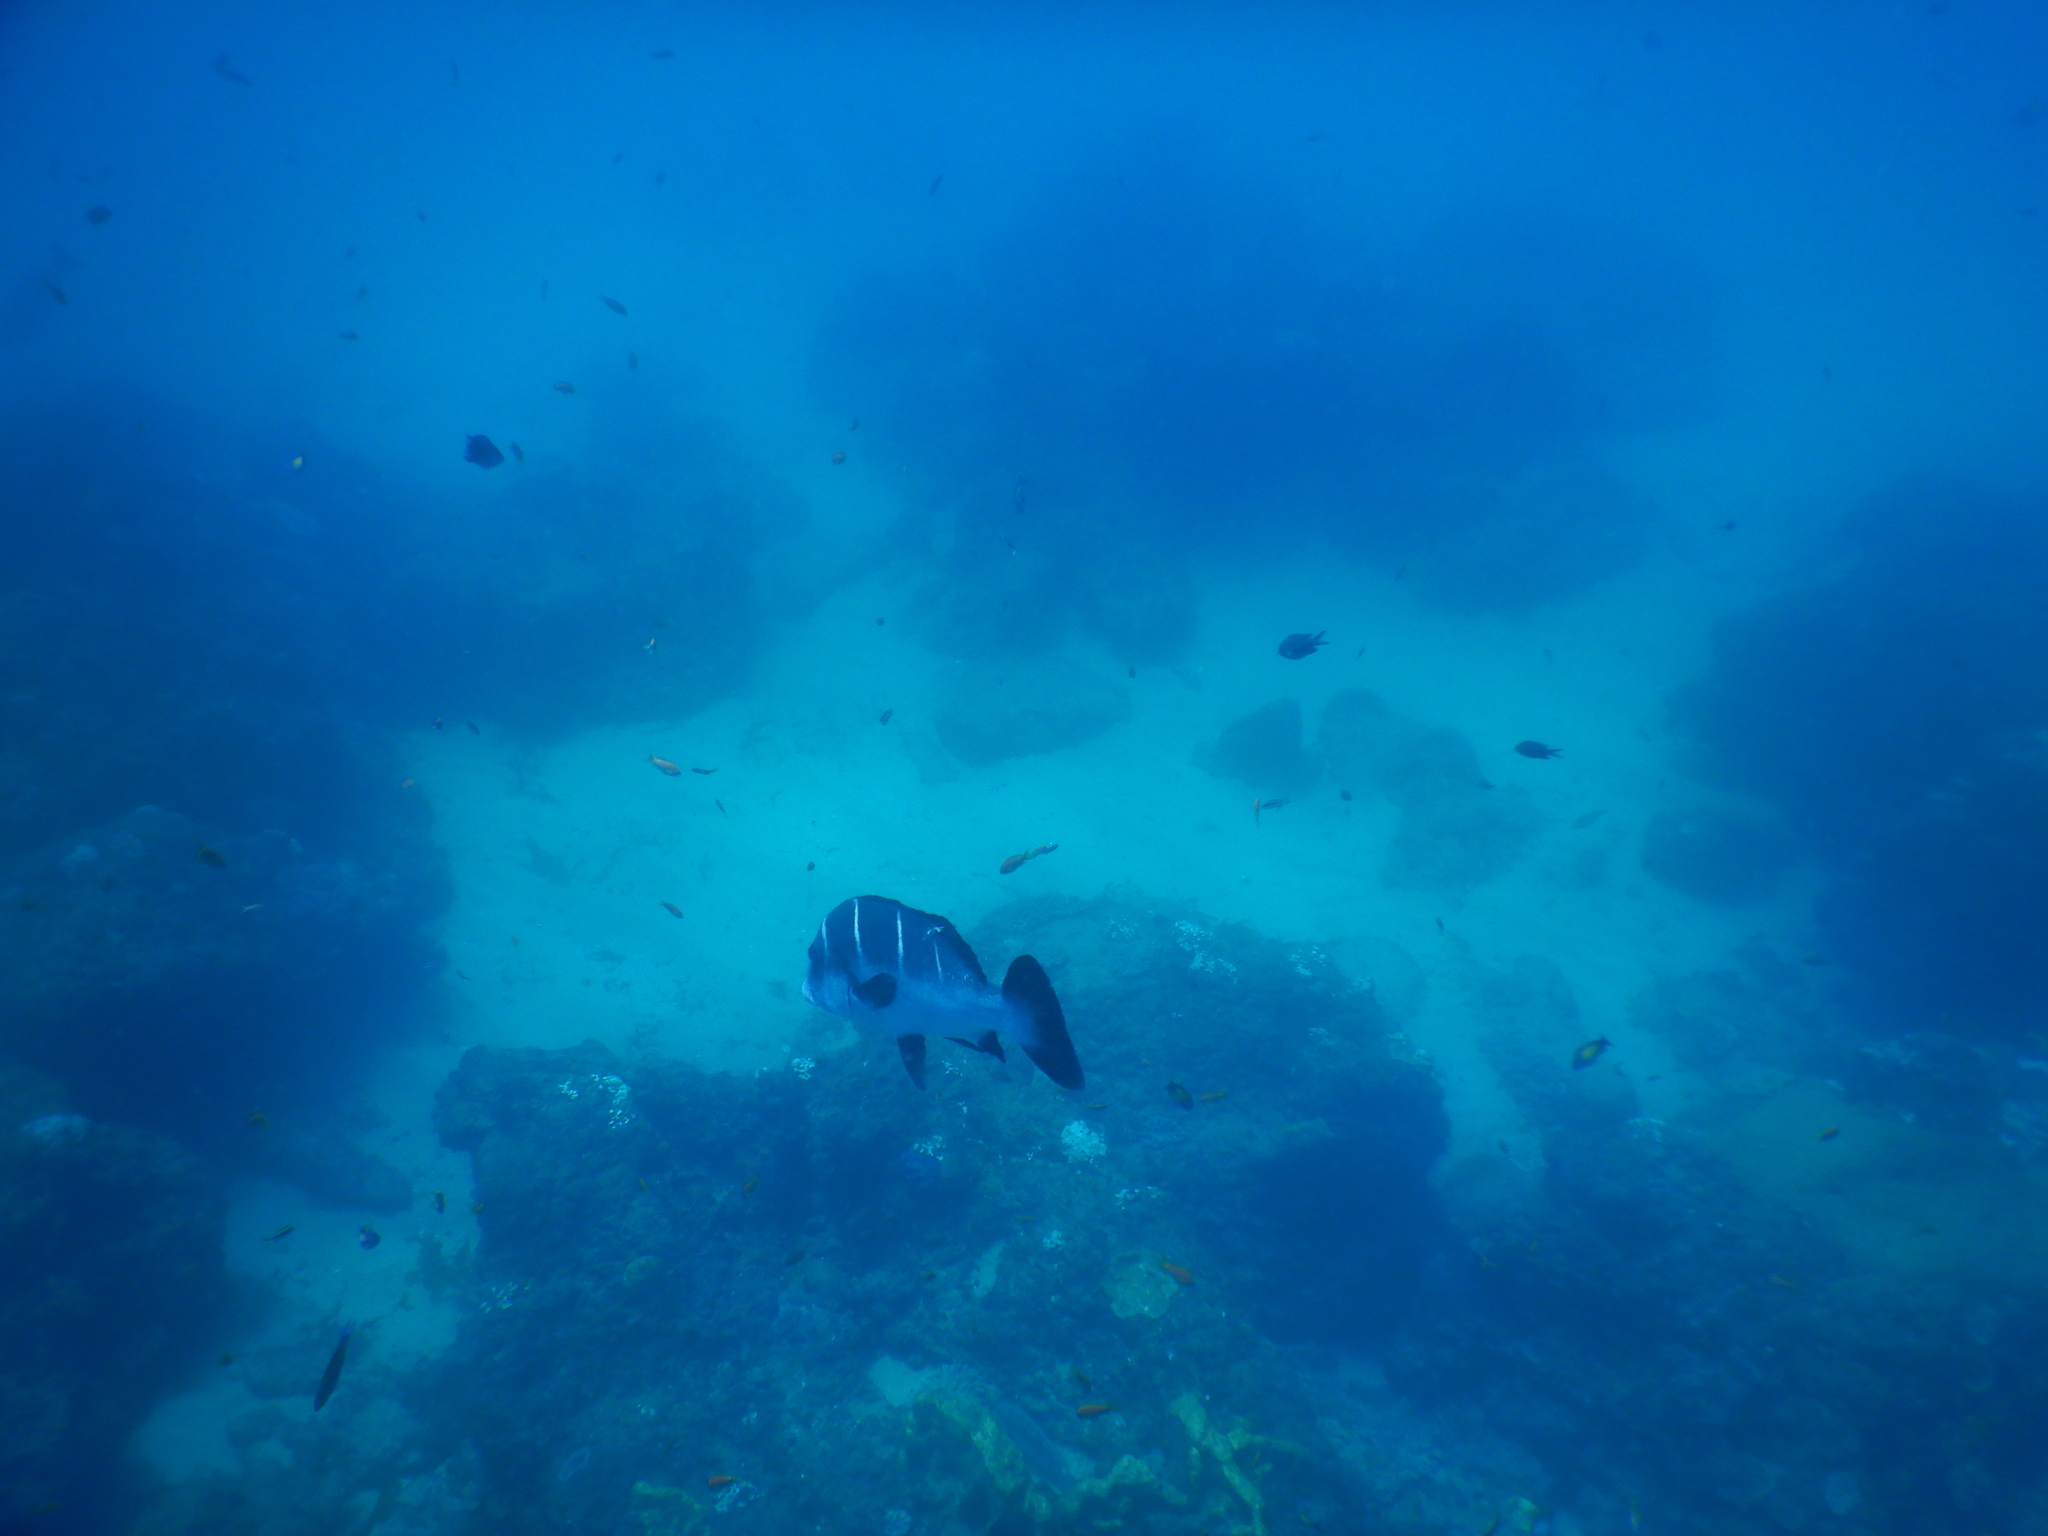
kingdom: Animalia
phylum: Chordata
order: Perciformes
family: Haemulidae
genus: Plectorhinchus
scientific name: Plectorhinchus playfairi
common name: Whitebarred rubberlip
